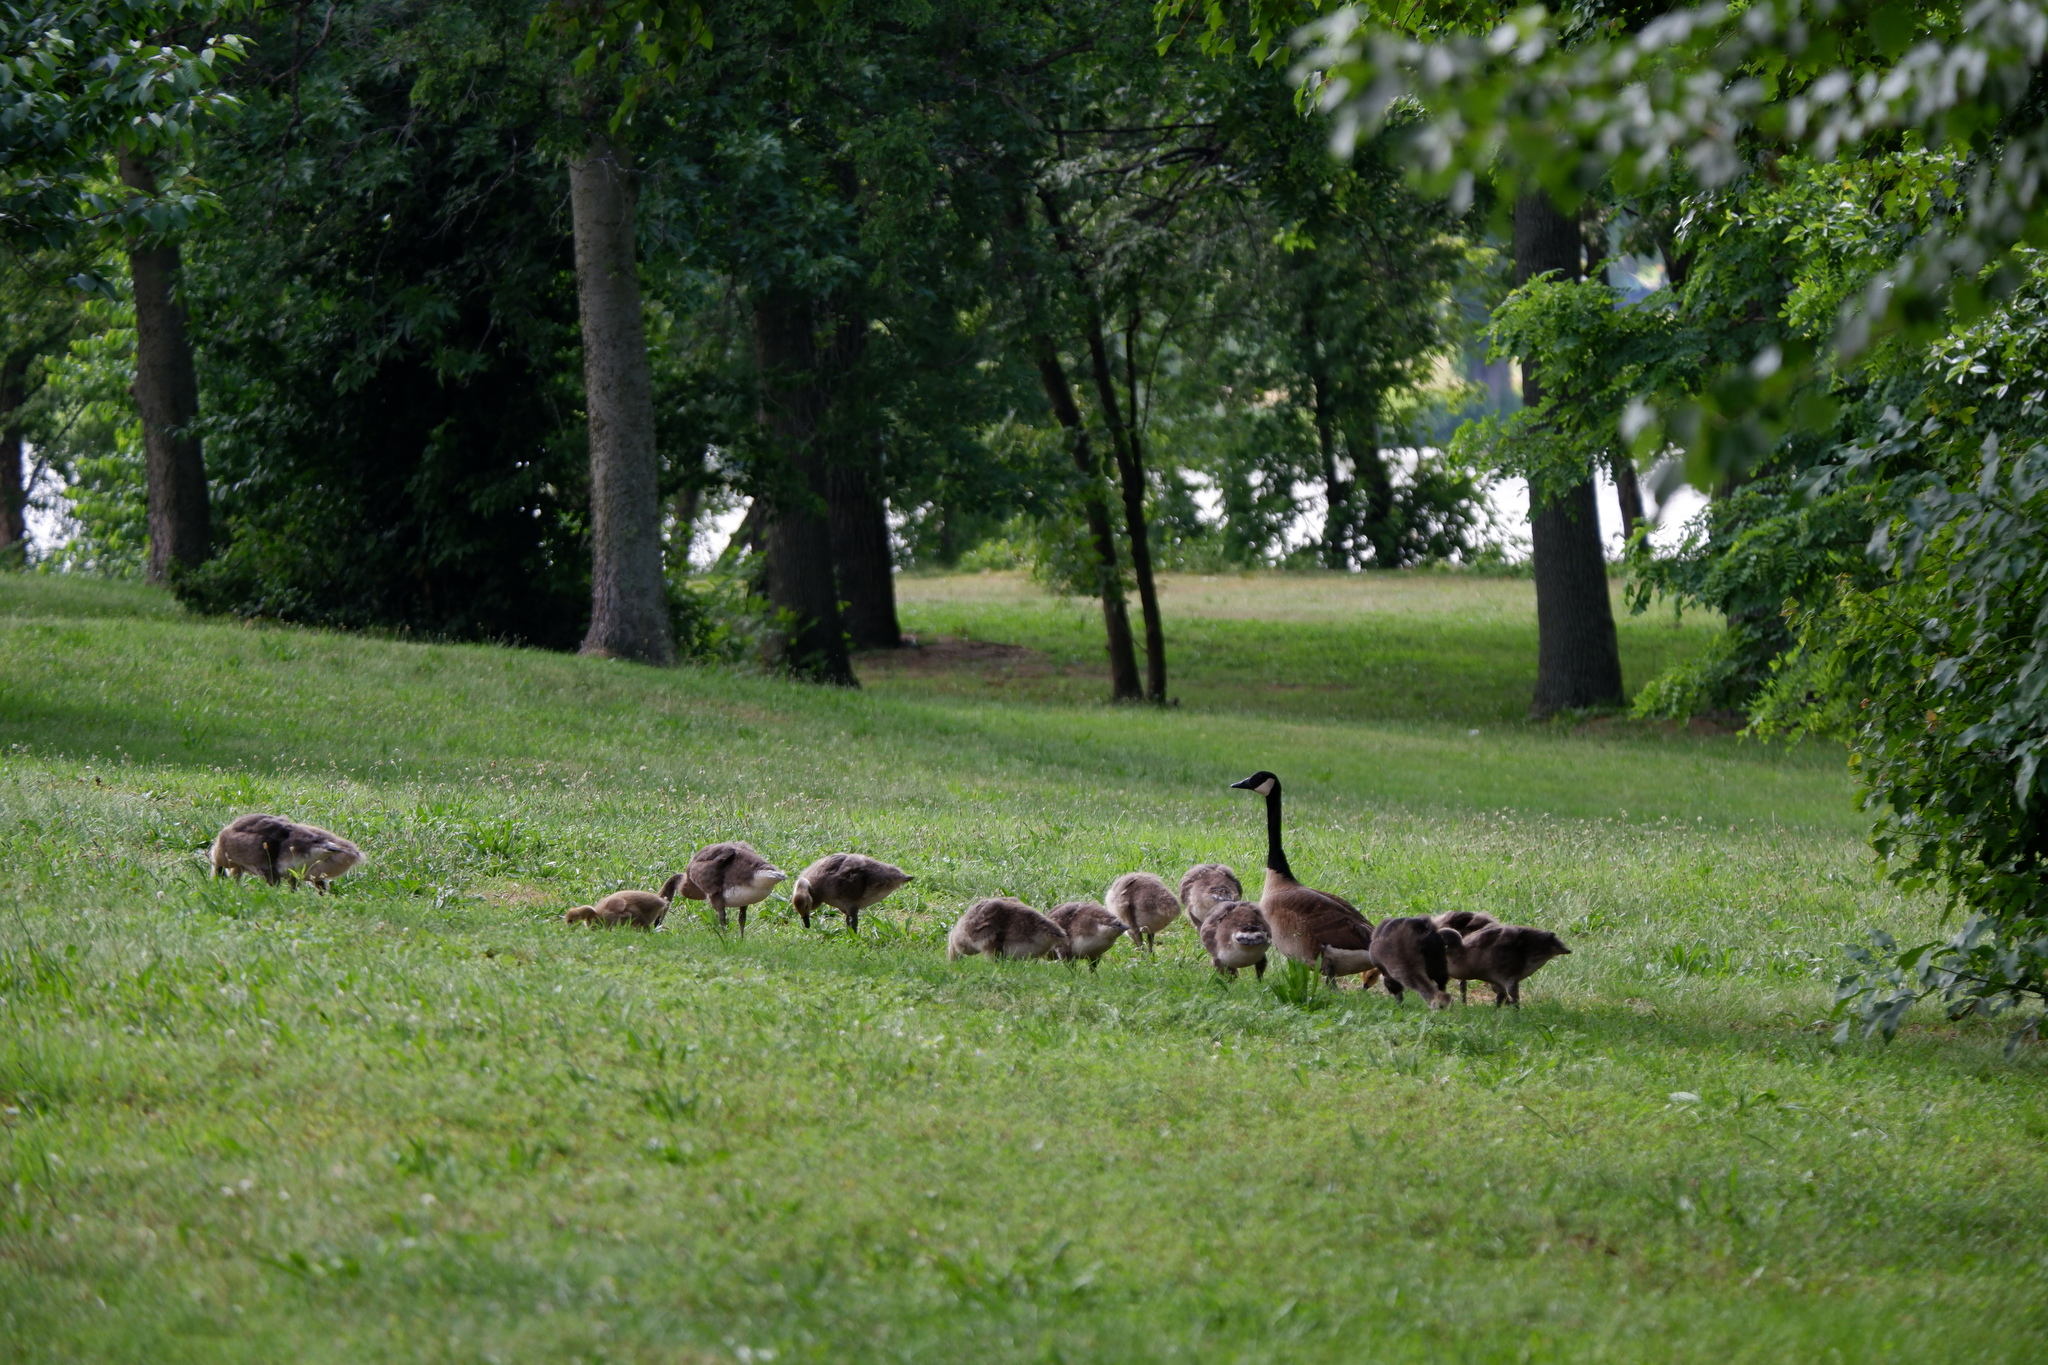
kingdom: Animalia
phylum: Chordata
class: Aves
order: Anseriformes
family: Anatidae
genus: Branta
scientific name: Branta canadensis
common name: Canada goose
